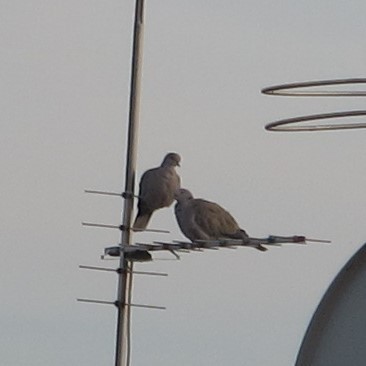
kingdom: Animalia
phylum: Chordata
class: Aves
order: Columbiformes
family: Columbidae
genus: Streptopelia
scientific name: Streptopelia decaocto
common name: Eurasian collared dove
